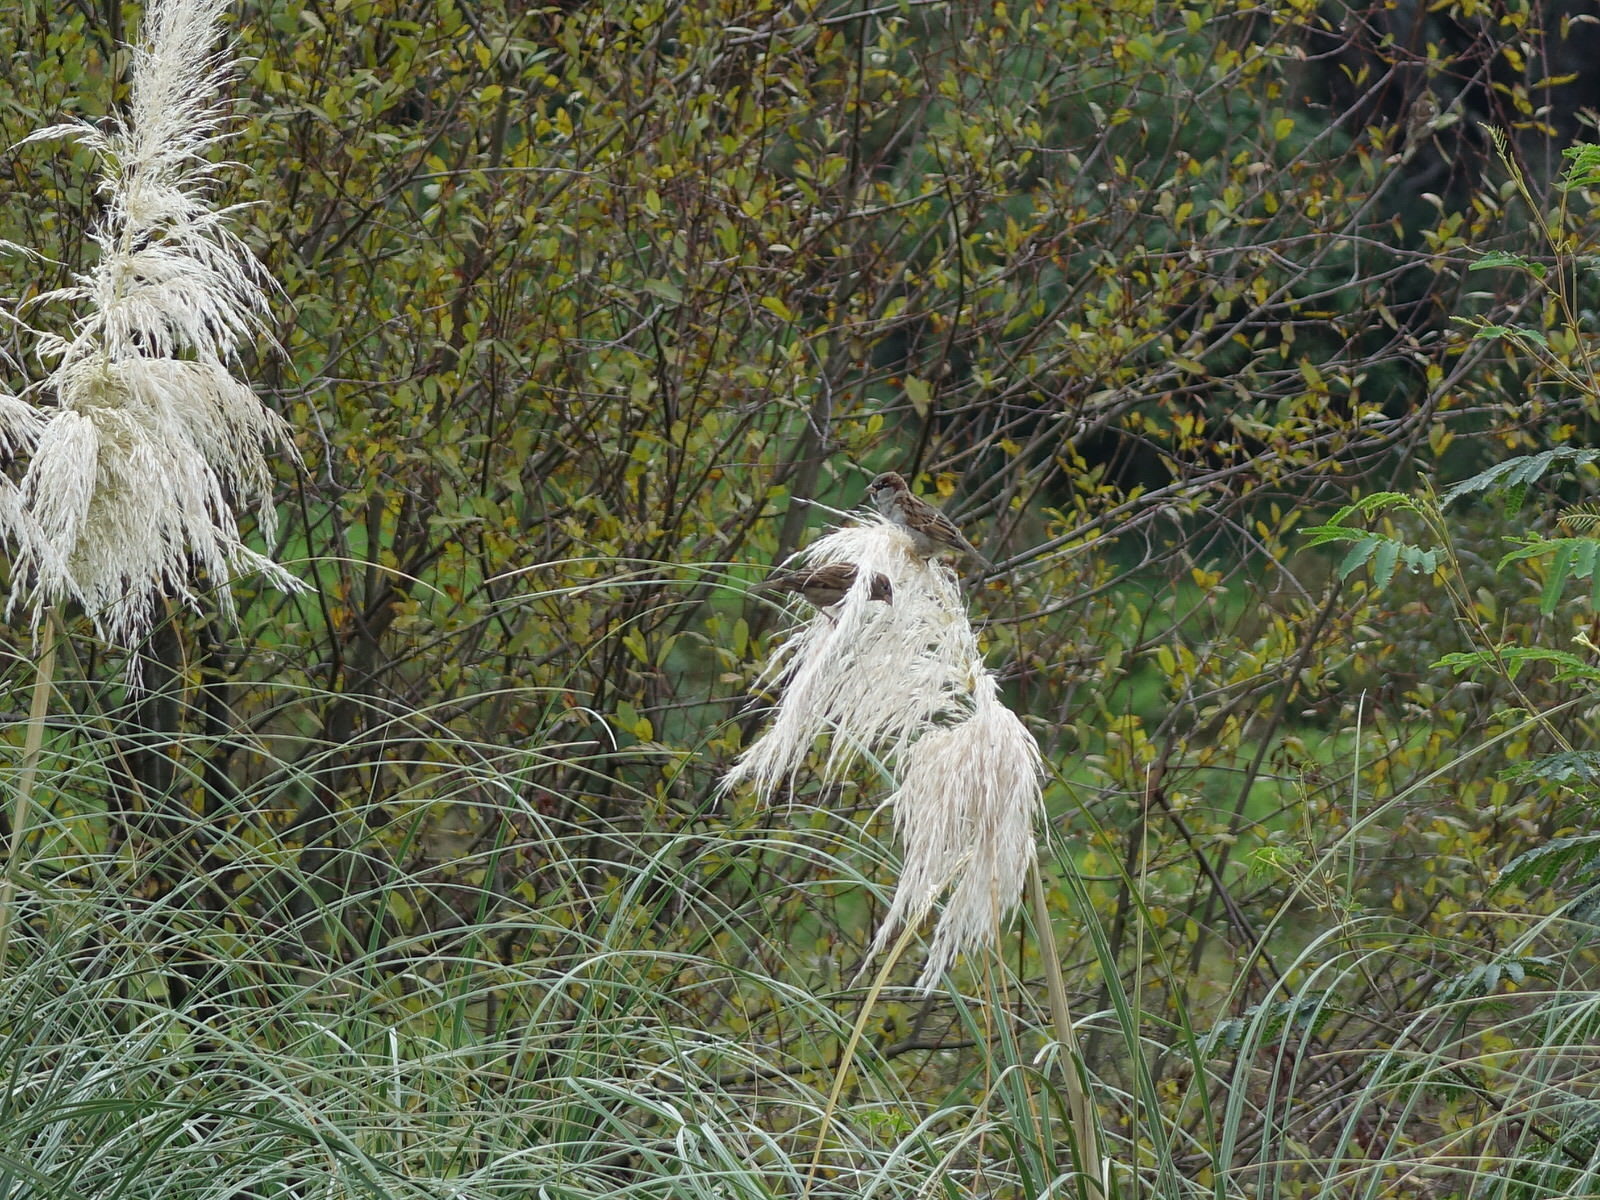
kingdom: Animalia
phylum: Chordata
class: Aves
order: Passeriformes
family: Passeridae
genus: Passer
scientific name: Passer domesticus
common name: House sparrow
